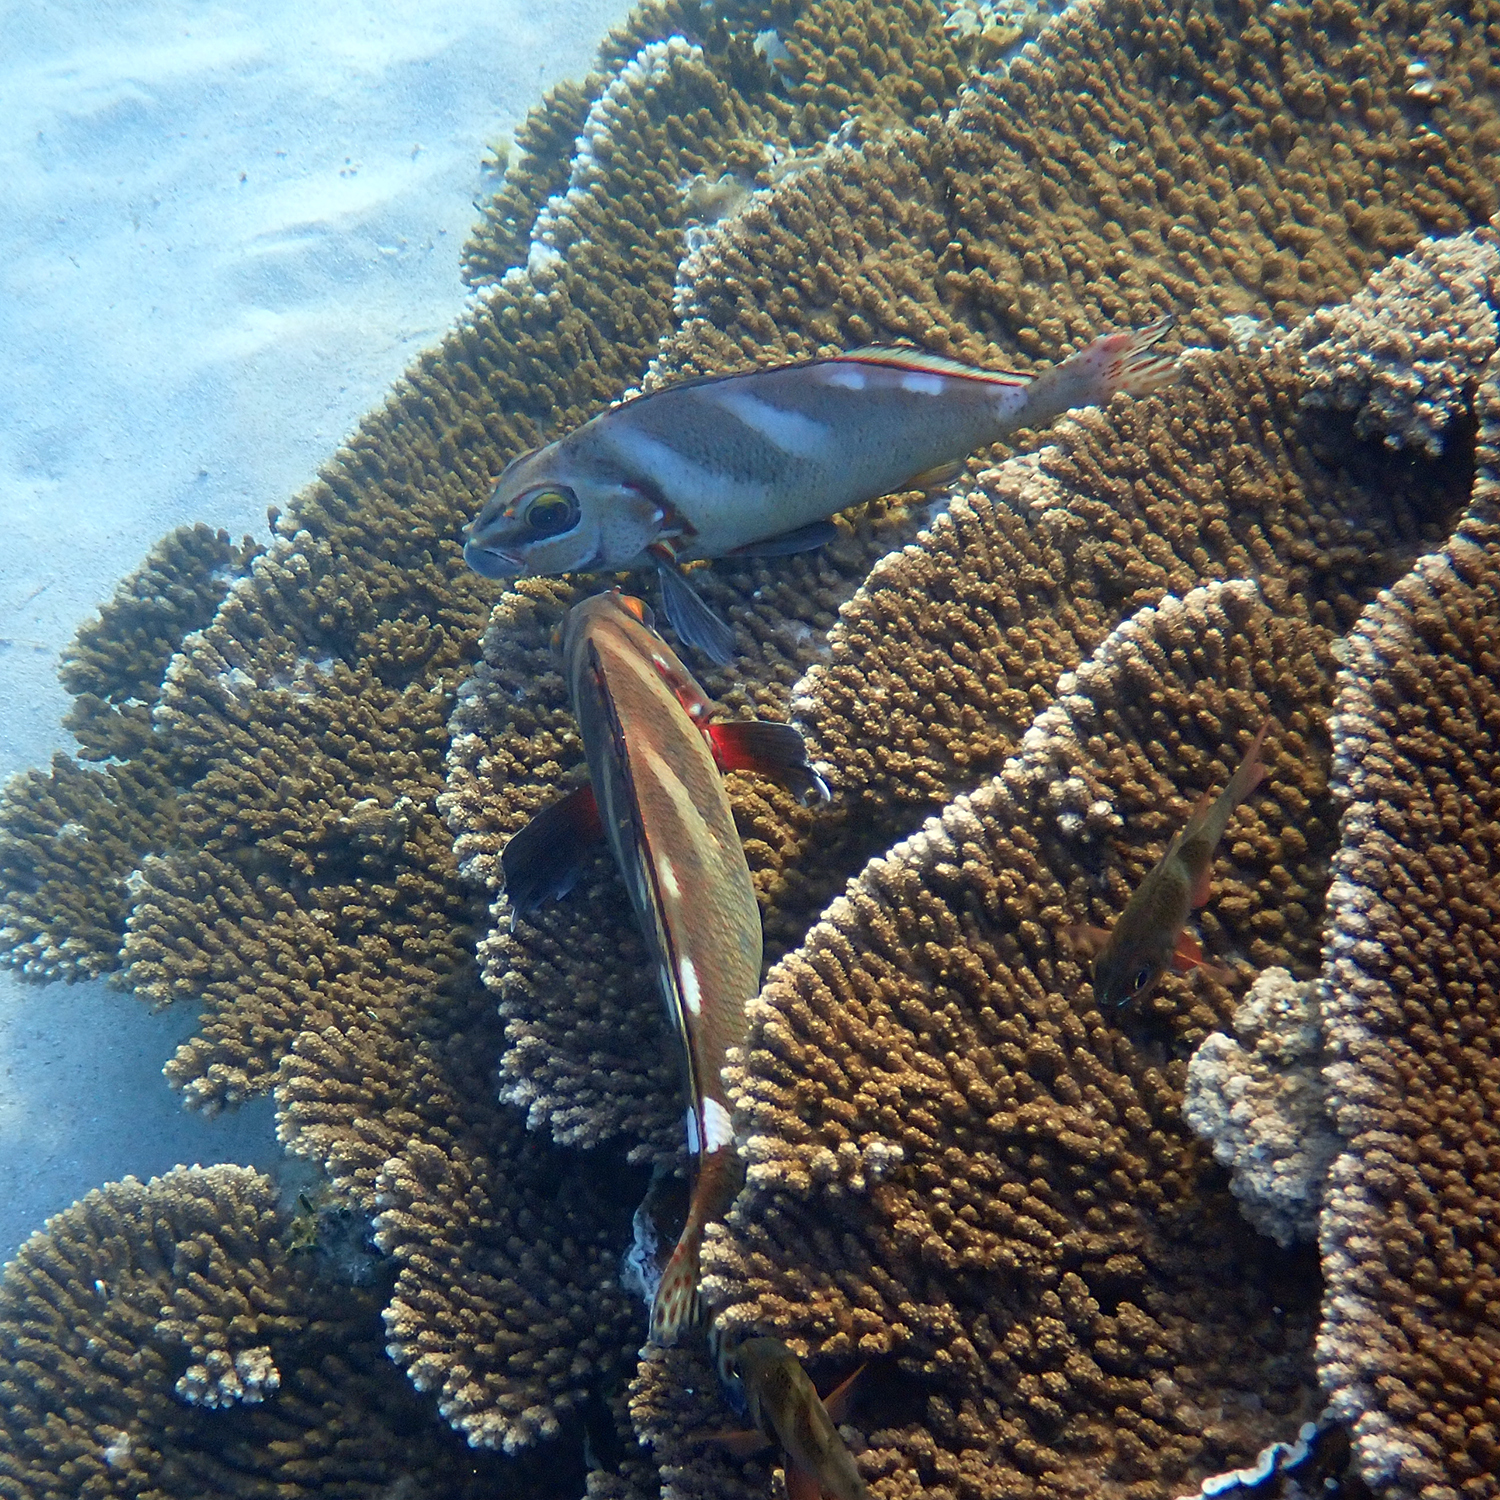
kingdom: Animalia
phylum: Chordata
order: Perciformes
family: Latridae
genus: Morwong
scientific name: Morwong ephippium
